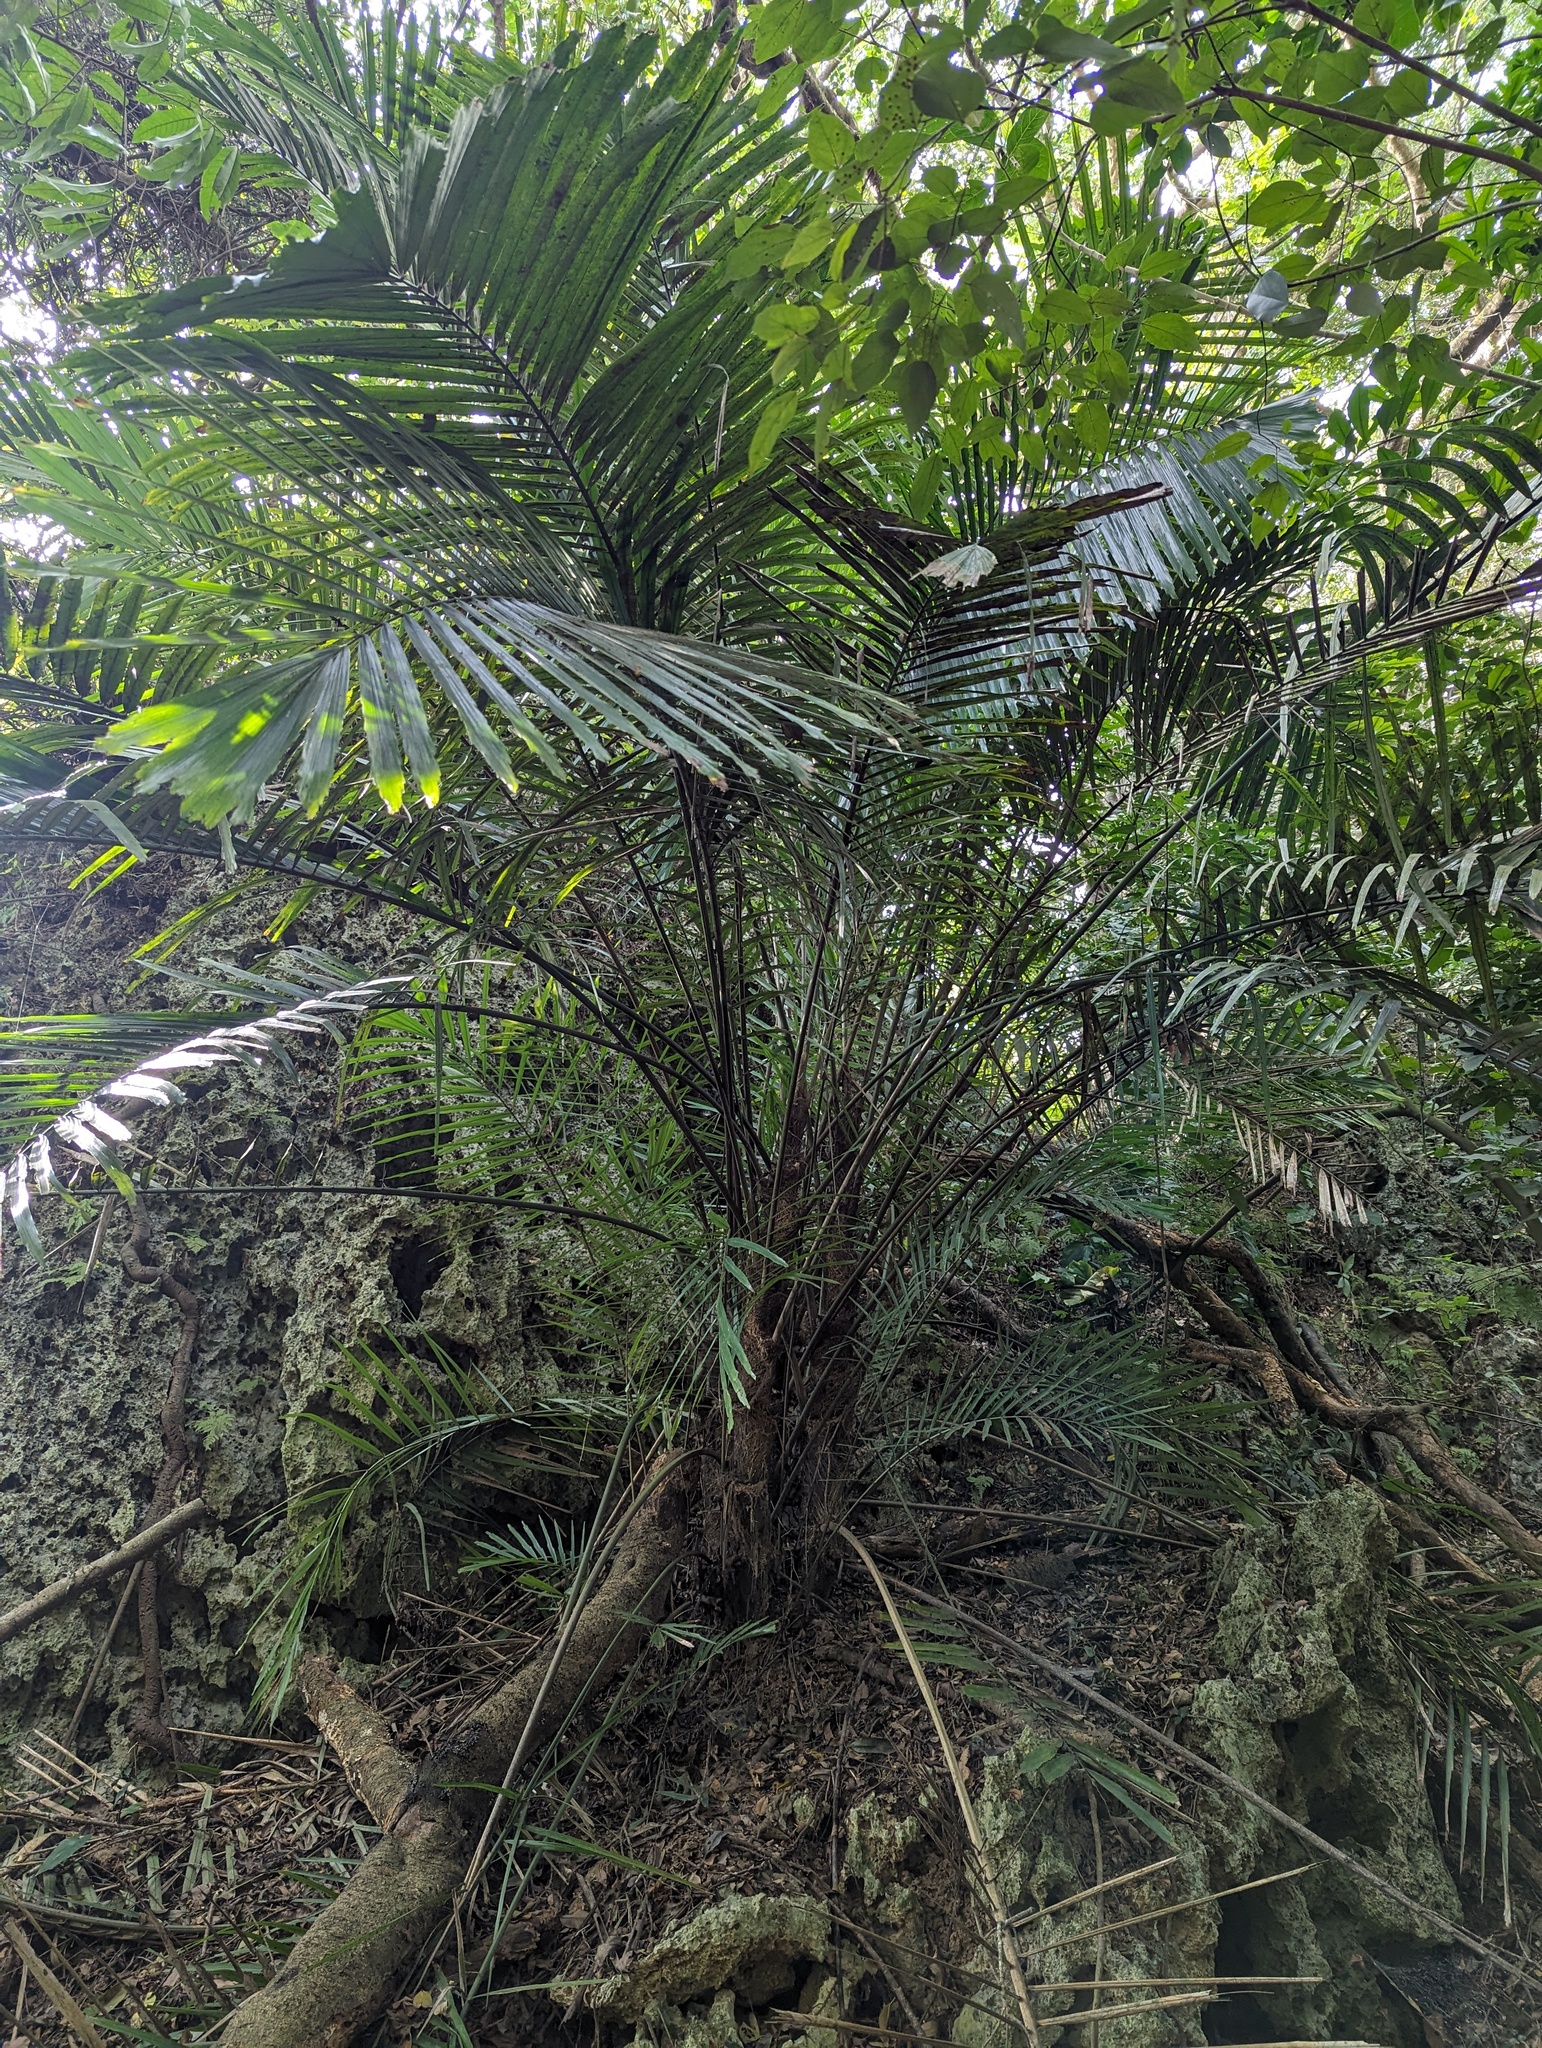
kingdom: Plantae
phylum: Tracheophyta
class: Liliopsida
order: Arecales
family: Arecaceae
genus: Arenga
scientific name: Arenga engleri
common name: Formosan sugar palm
